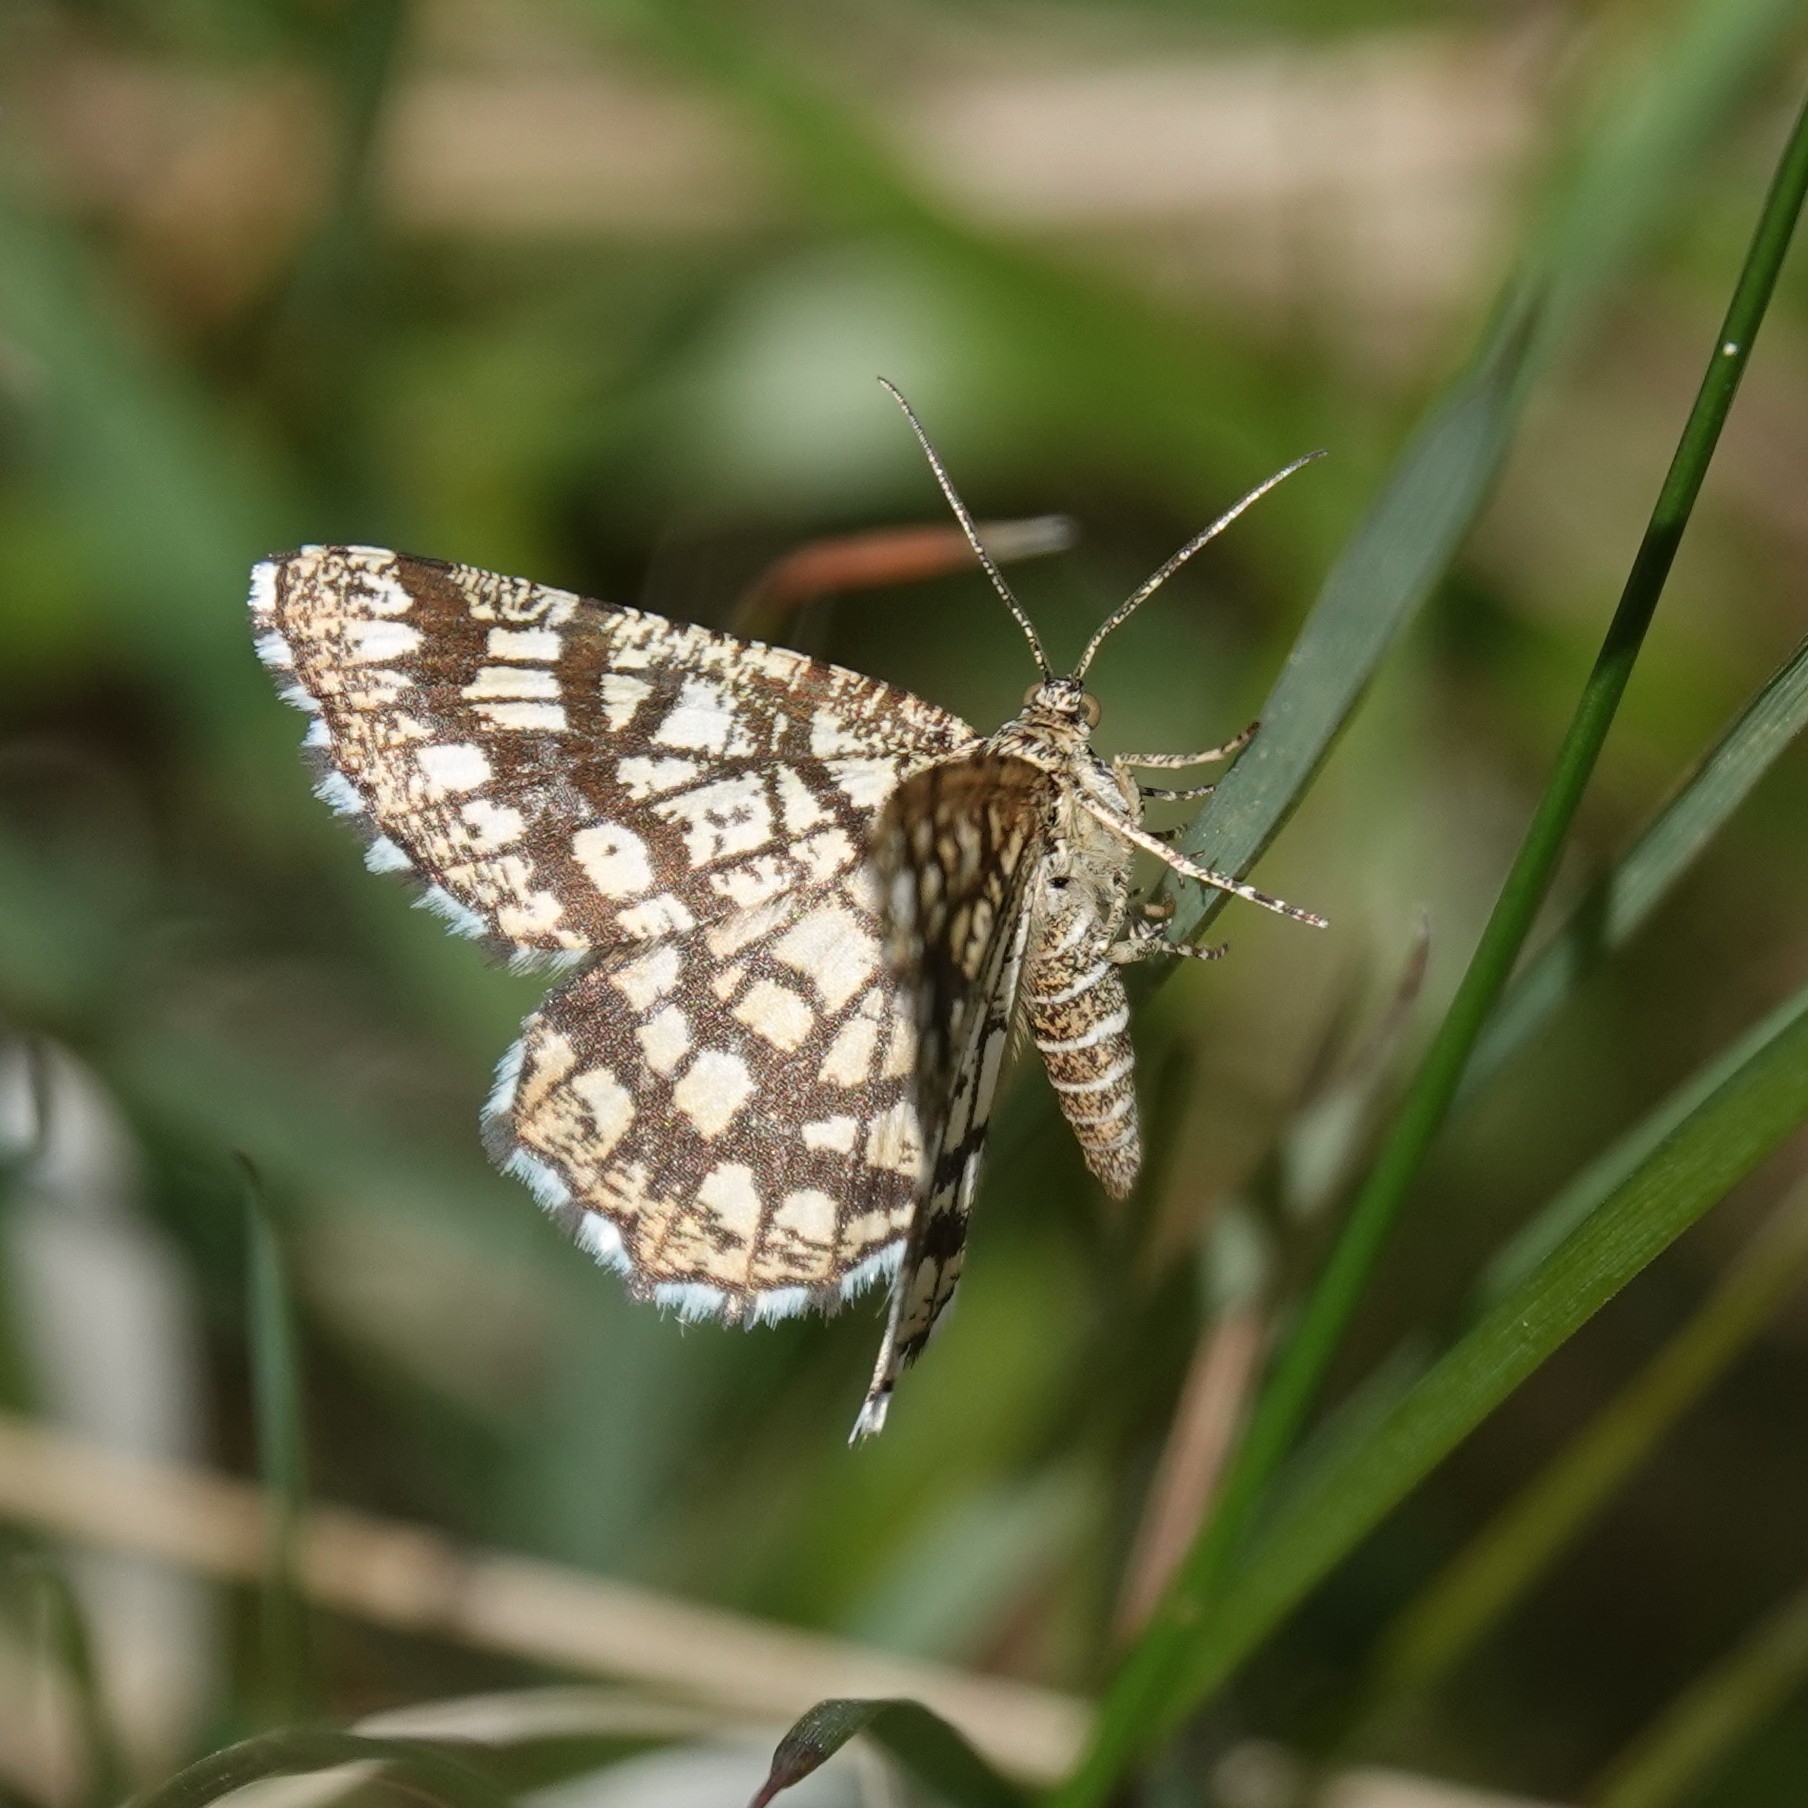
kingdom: Animalia
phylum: Arthropoda
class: Insecta
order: Lepidoptera
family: Geometridae
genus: Chiasmia
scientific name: Chiasmia clathrata
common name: Latticed heath
